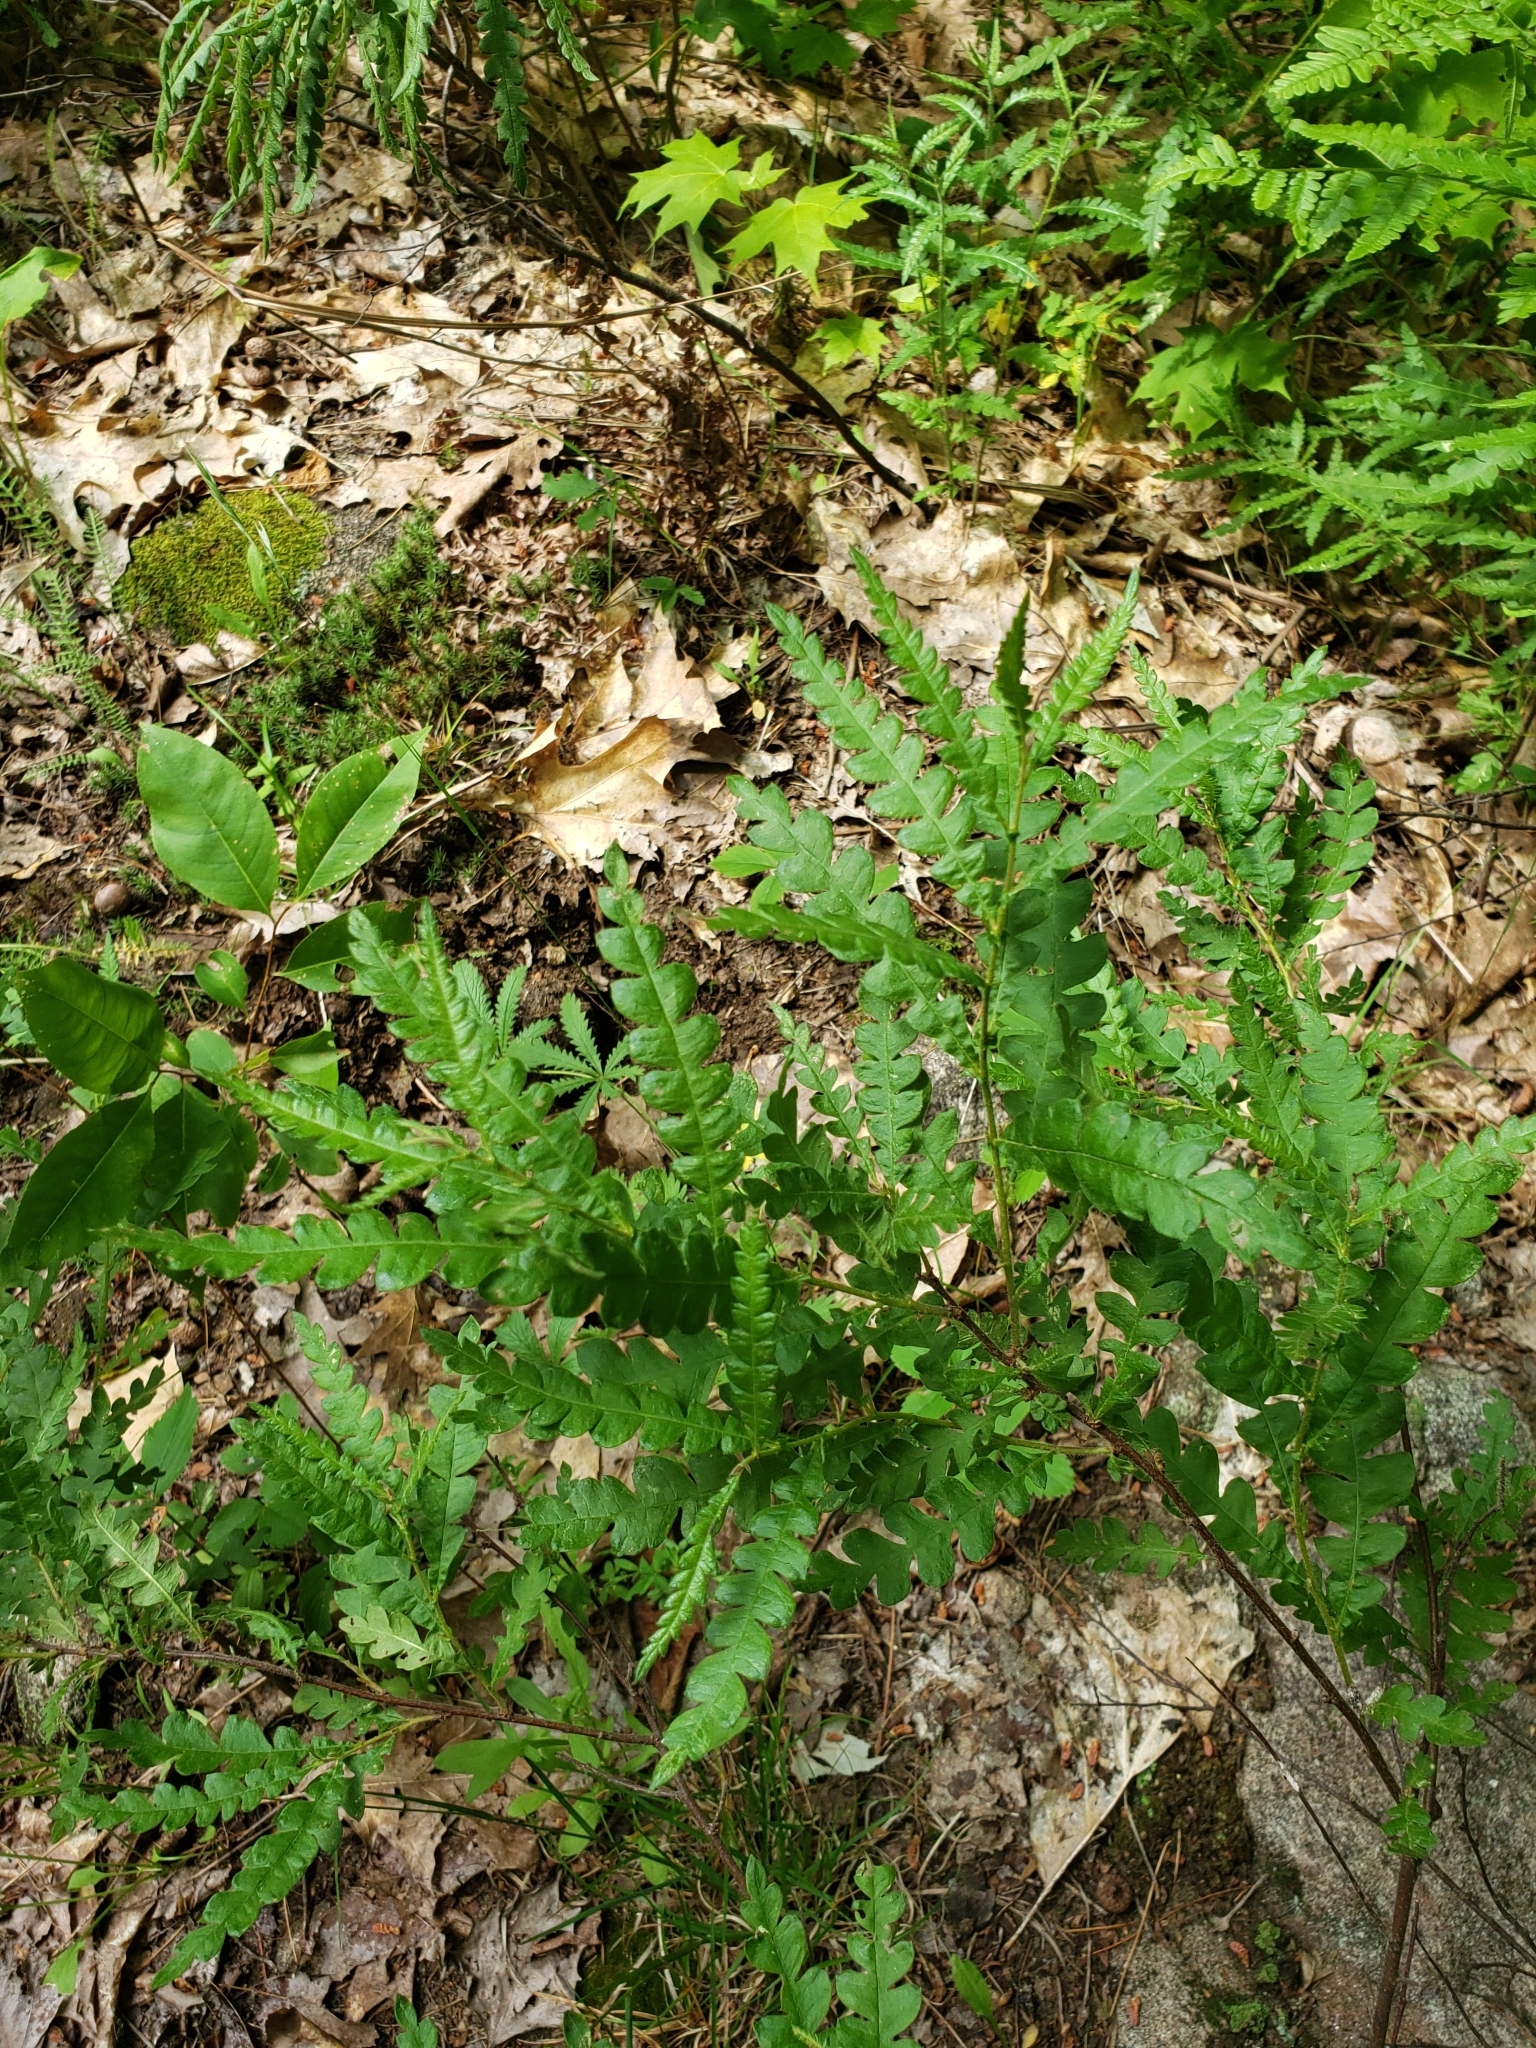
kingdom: Plantae
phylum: Tracheophyta
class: Magnoliopsida
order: Fagales
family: Myricaceae
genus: Comptonia
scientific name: Comptonia peregrina
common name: Sweet-fern
